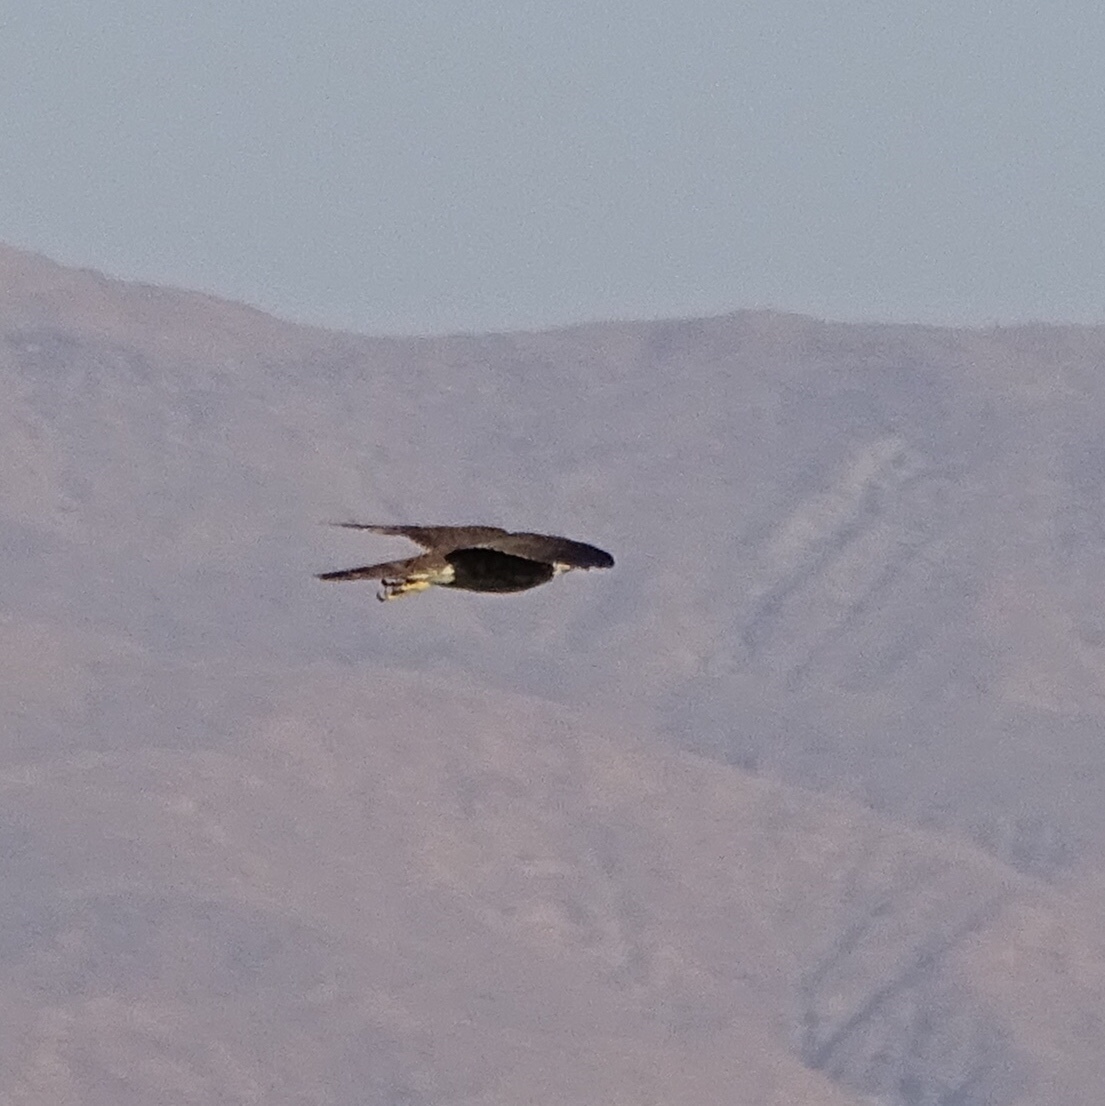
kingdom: Animalia
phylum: Chordata
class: Aves
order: Accipitriformes
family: Accipitridae
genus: Accipiter
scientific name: Accipiter cooperii
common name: Cooper's hawk
